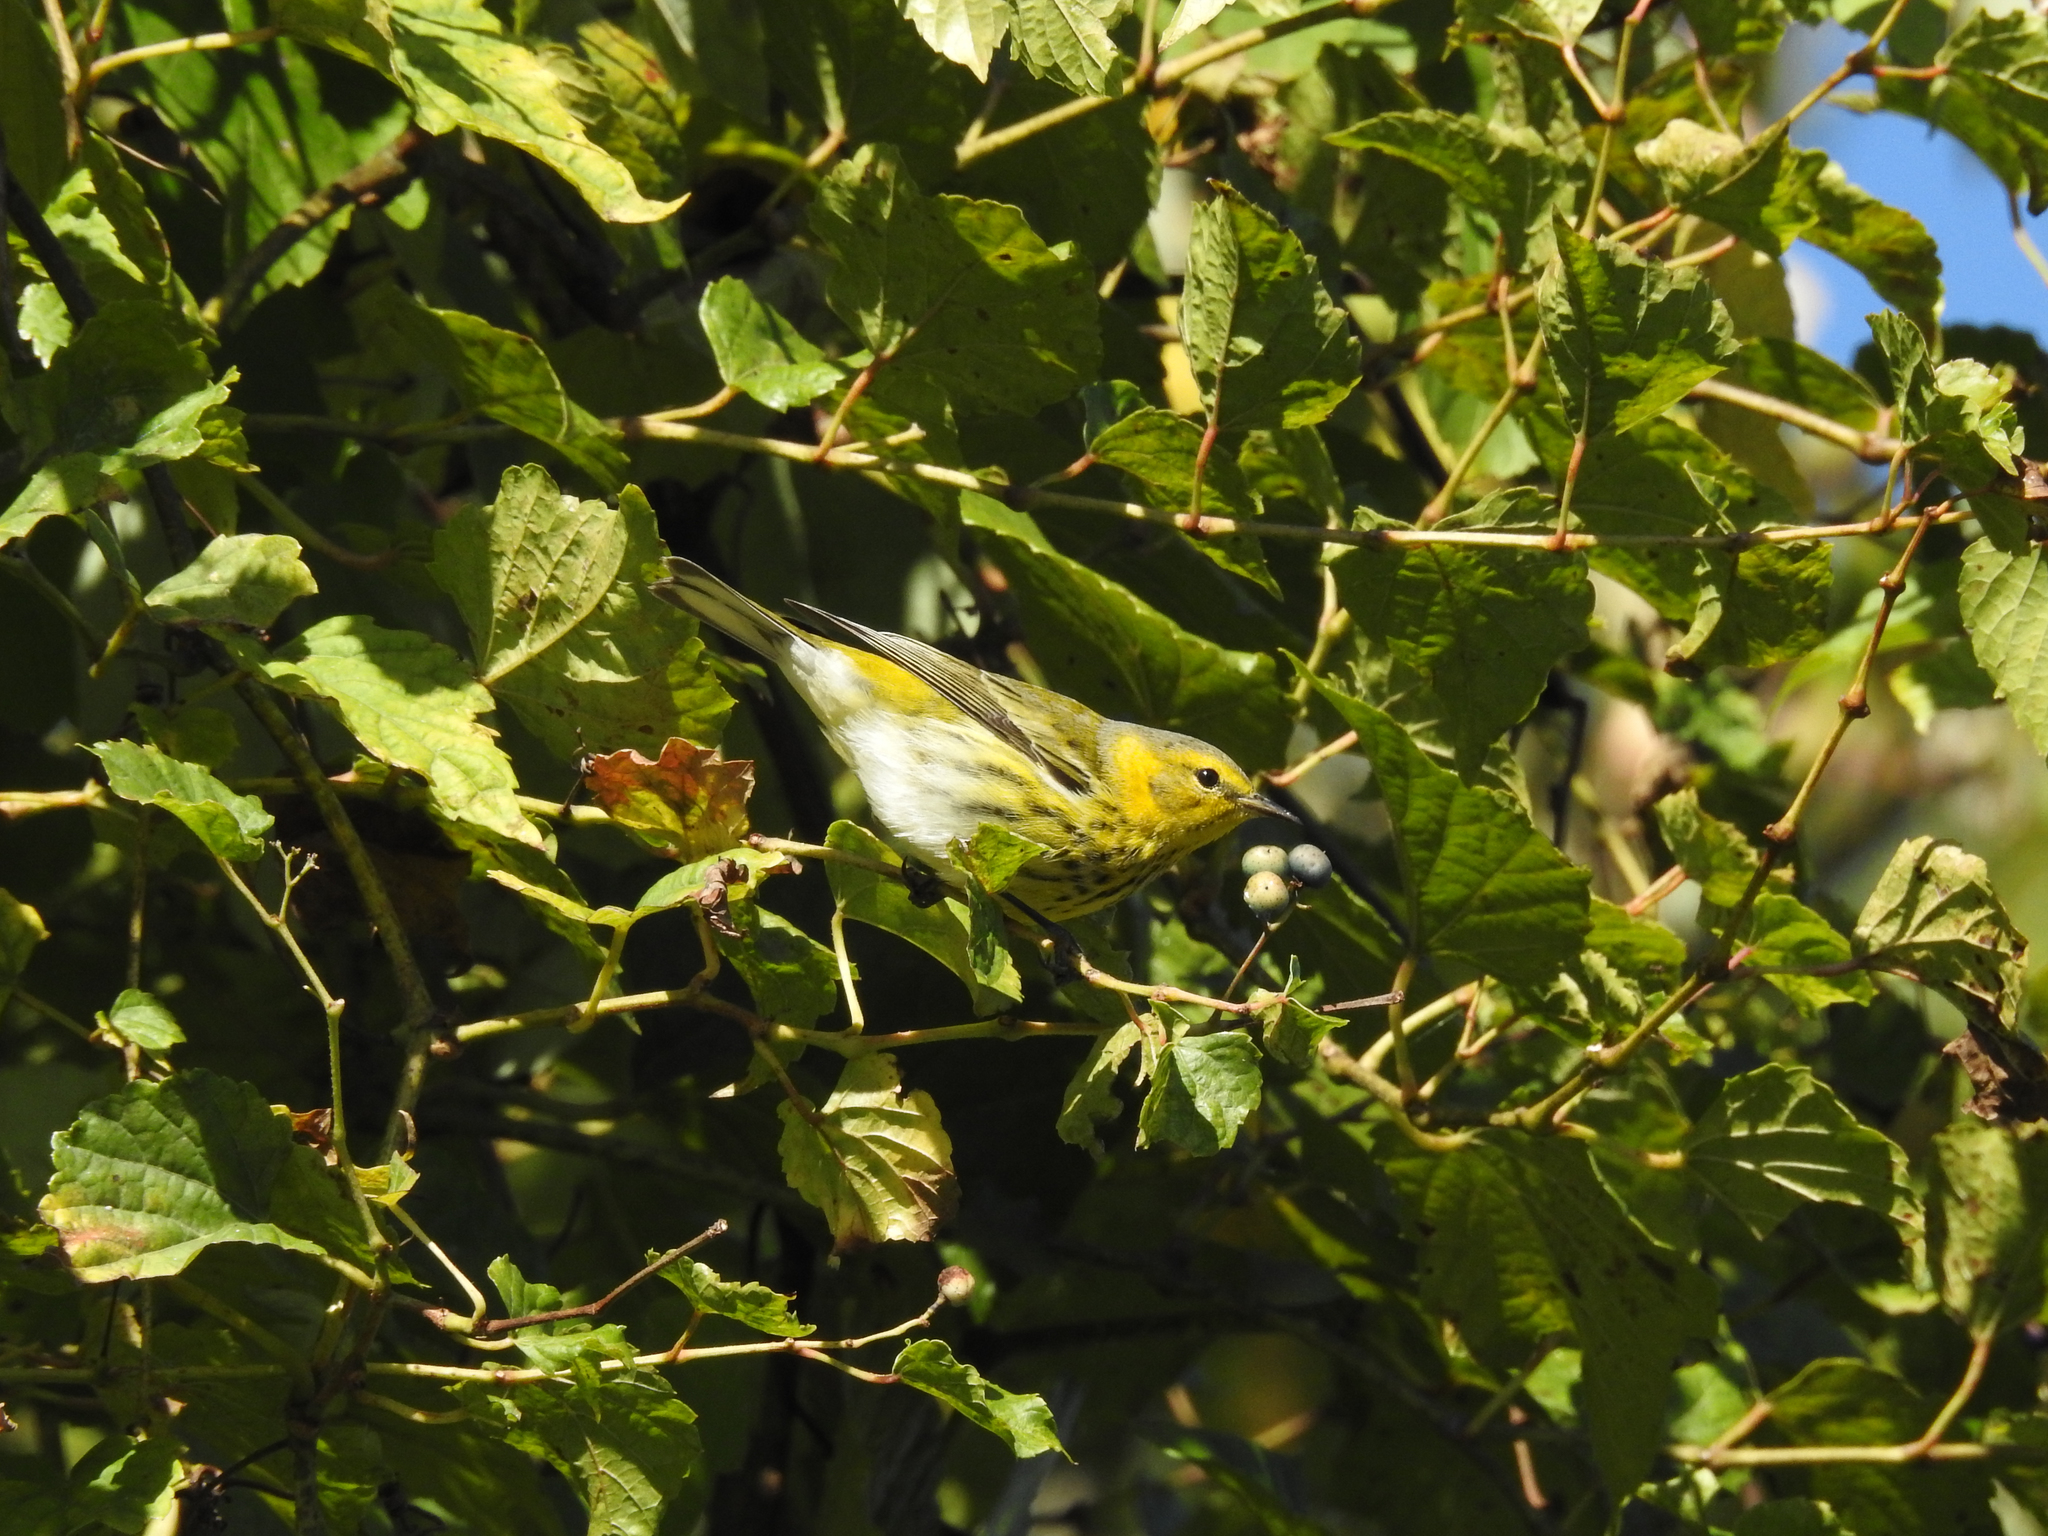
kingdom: Animalia
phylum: Chordata
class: Aves
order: Passeriformes
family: Parulidae
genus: Setophaga
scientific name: Setophaga tigrina
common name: Cape may warbler
